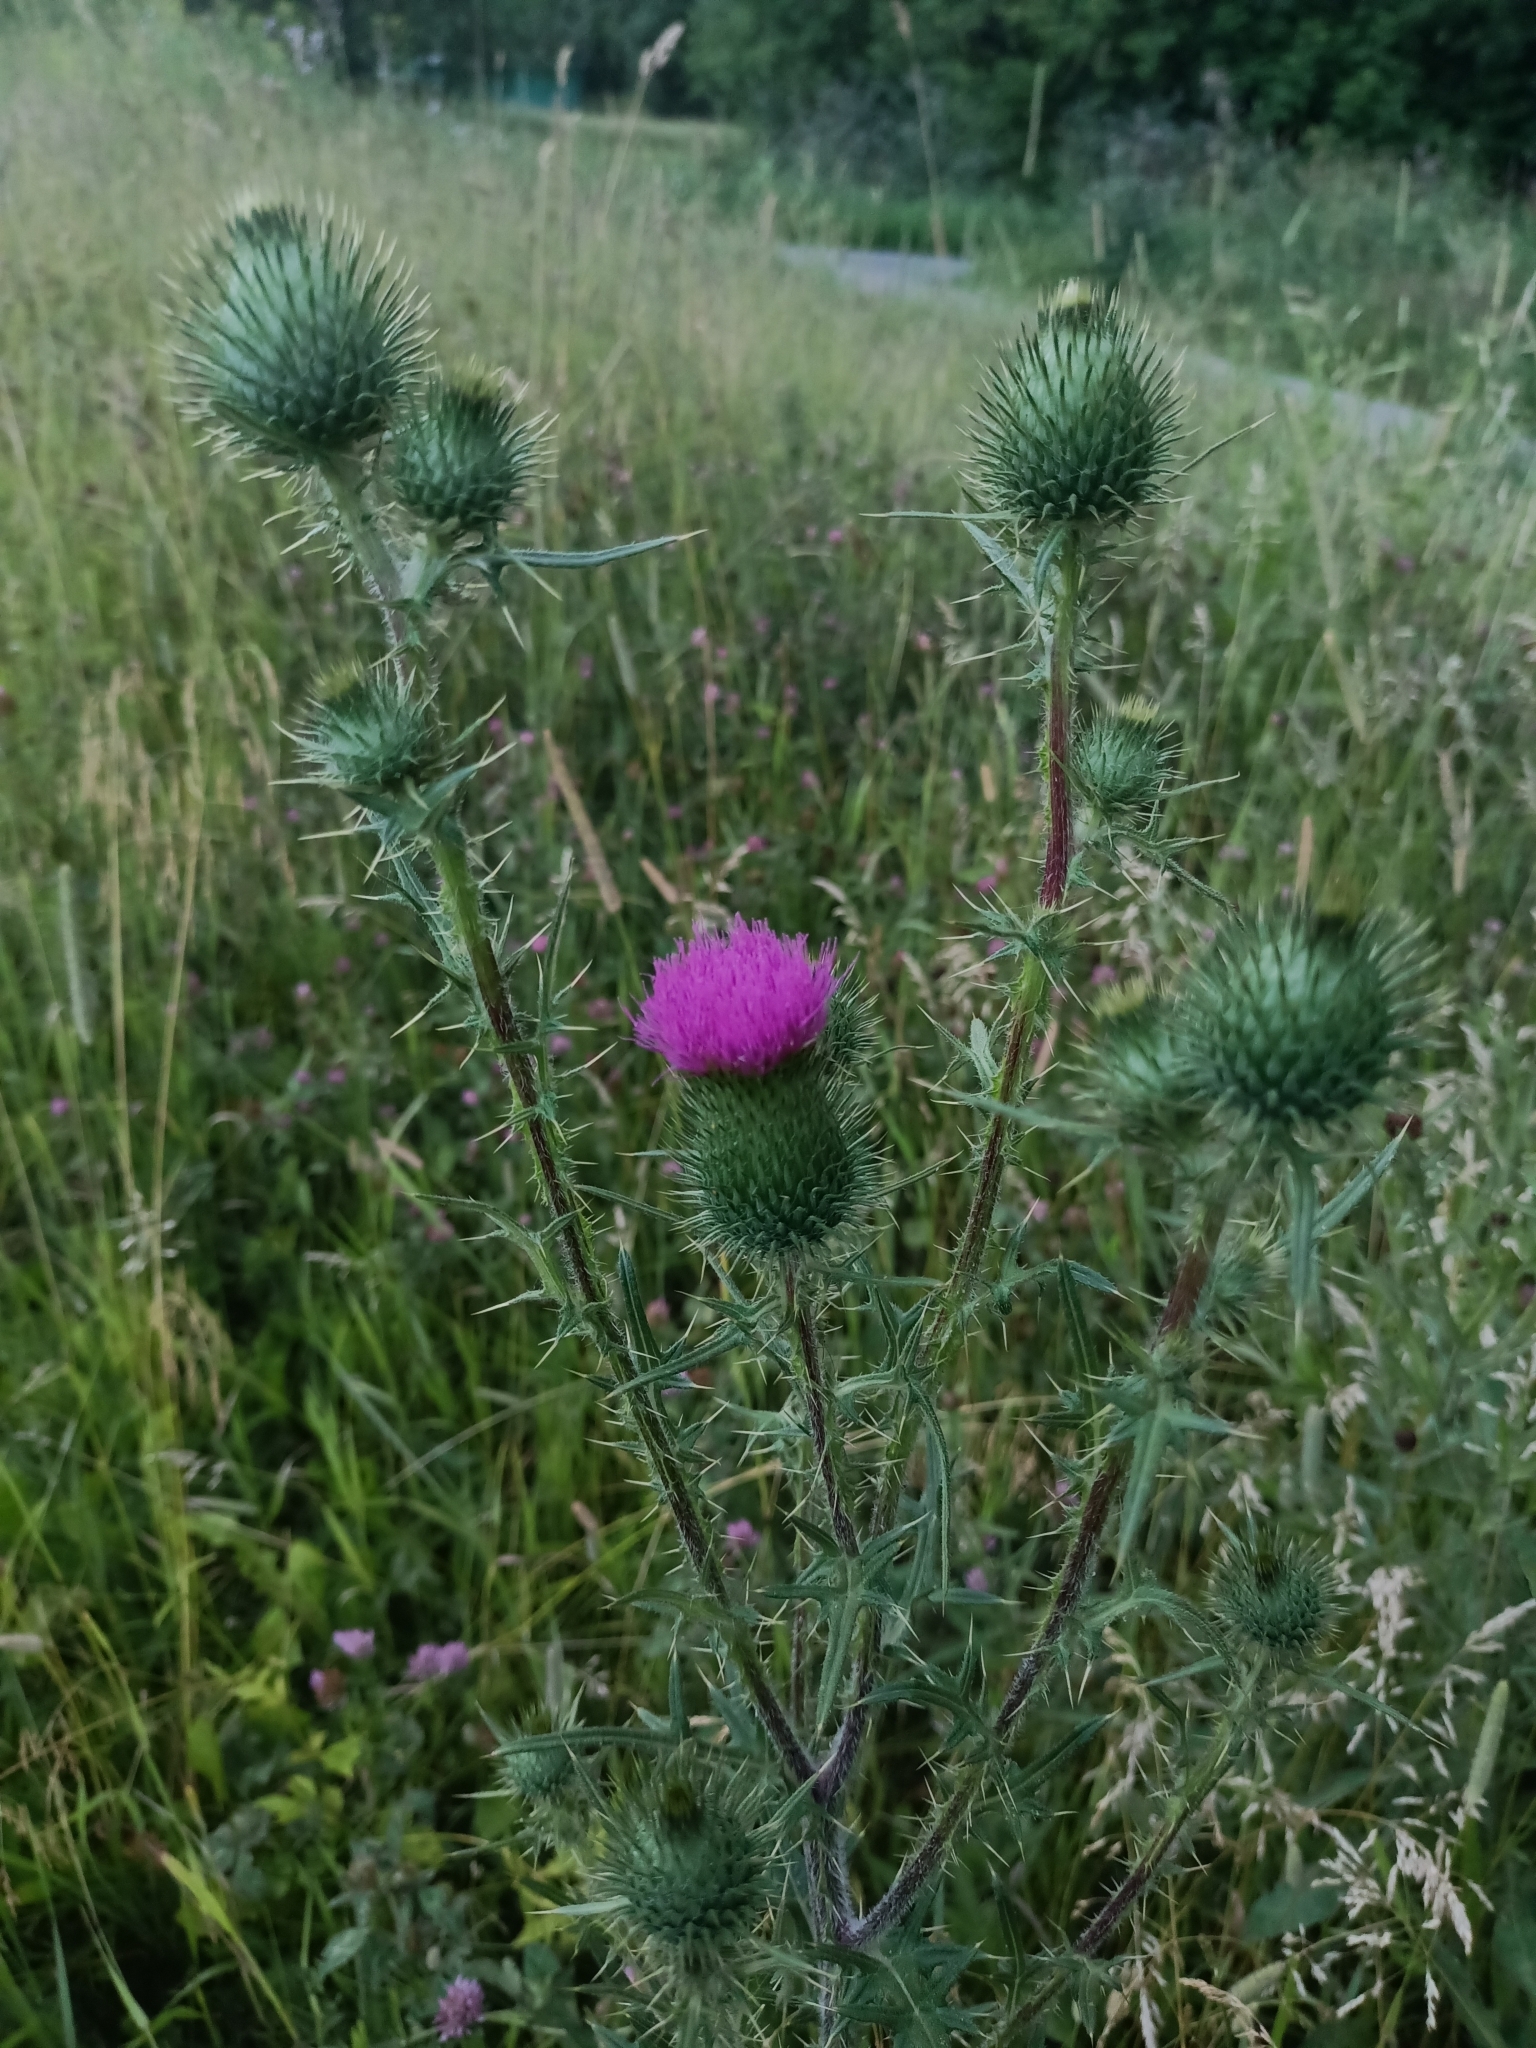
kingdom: Plantae
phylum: Tracheophyta
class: Magnoliopsida
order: Asterales
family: Asteraceae
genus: Cirsium
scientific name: Cirsium vulgare
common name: Bull thistle
